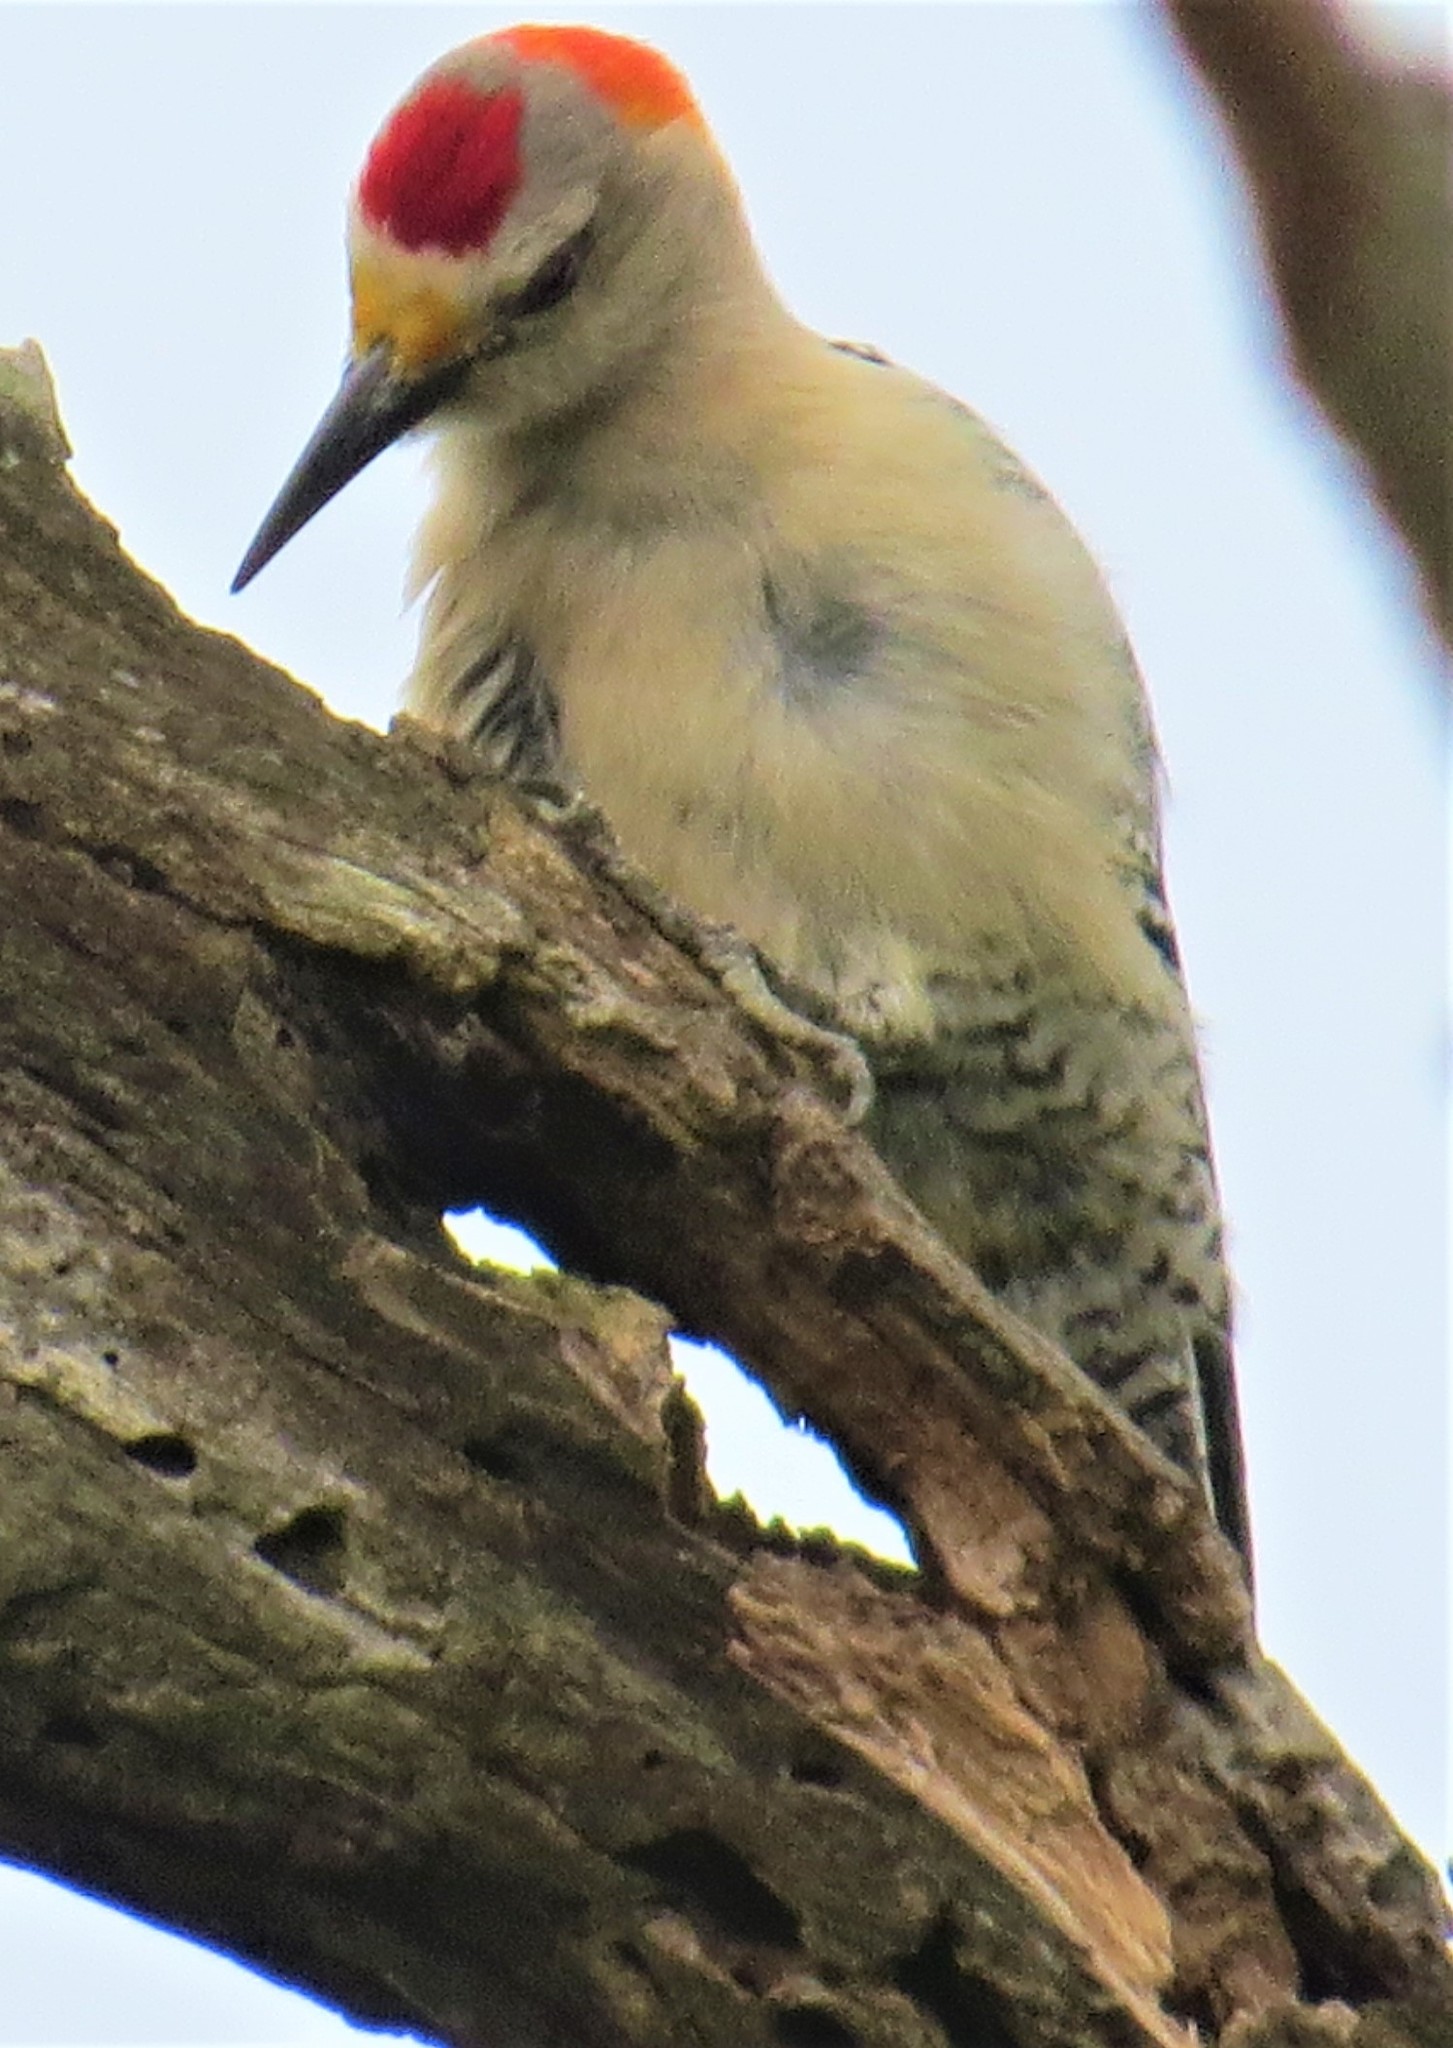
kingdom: Animalia
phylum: Chordata
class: Aves
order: Piciformes
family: Picidae
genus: Melanerpes
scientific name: Melanerpes aurifrons
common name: Golden-fronted woodpecker
